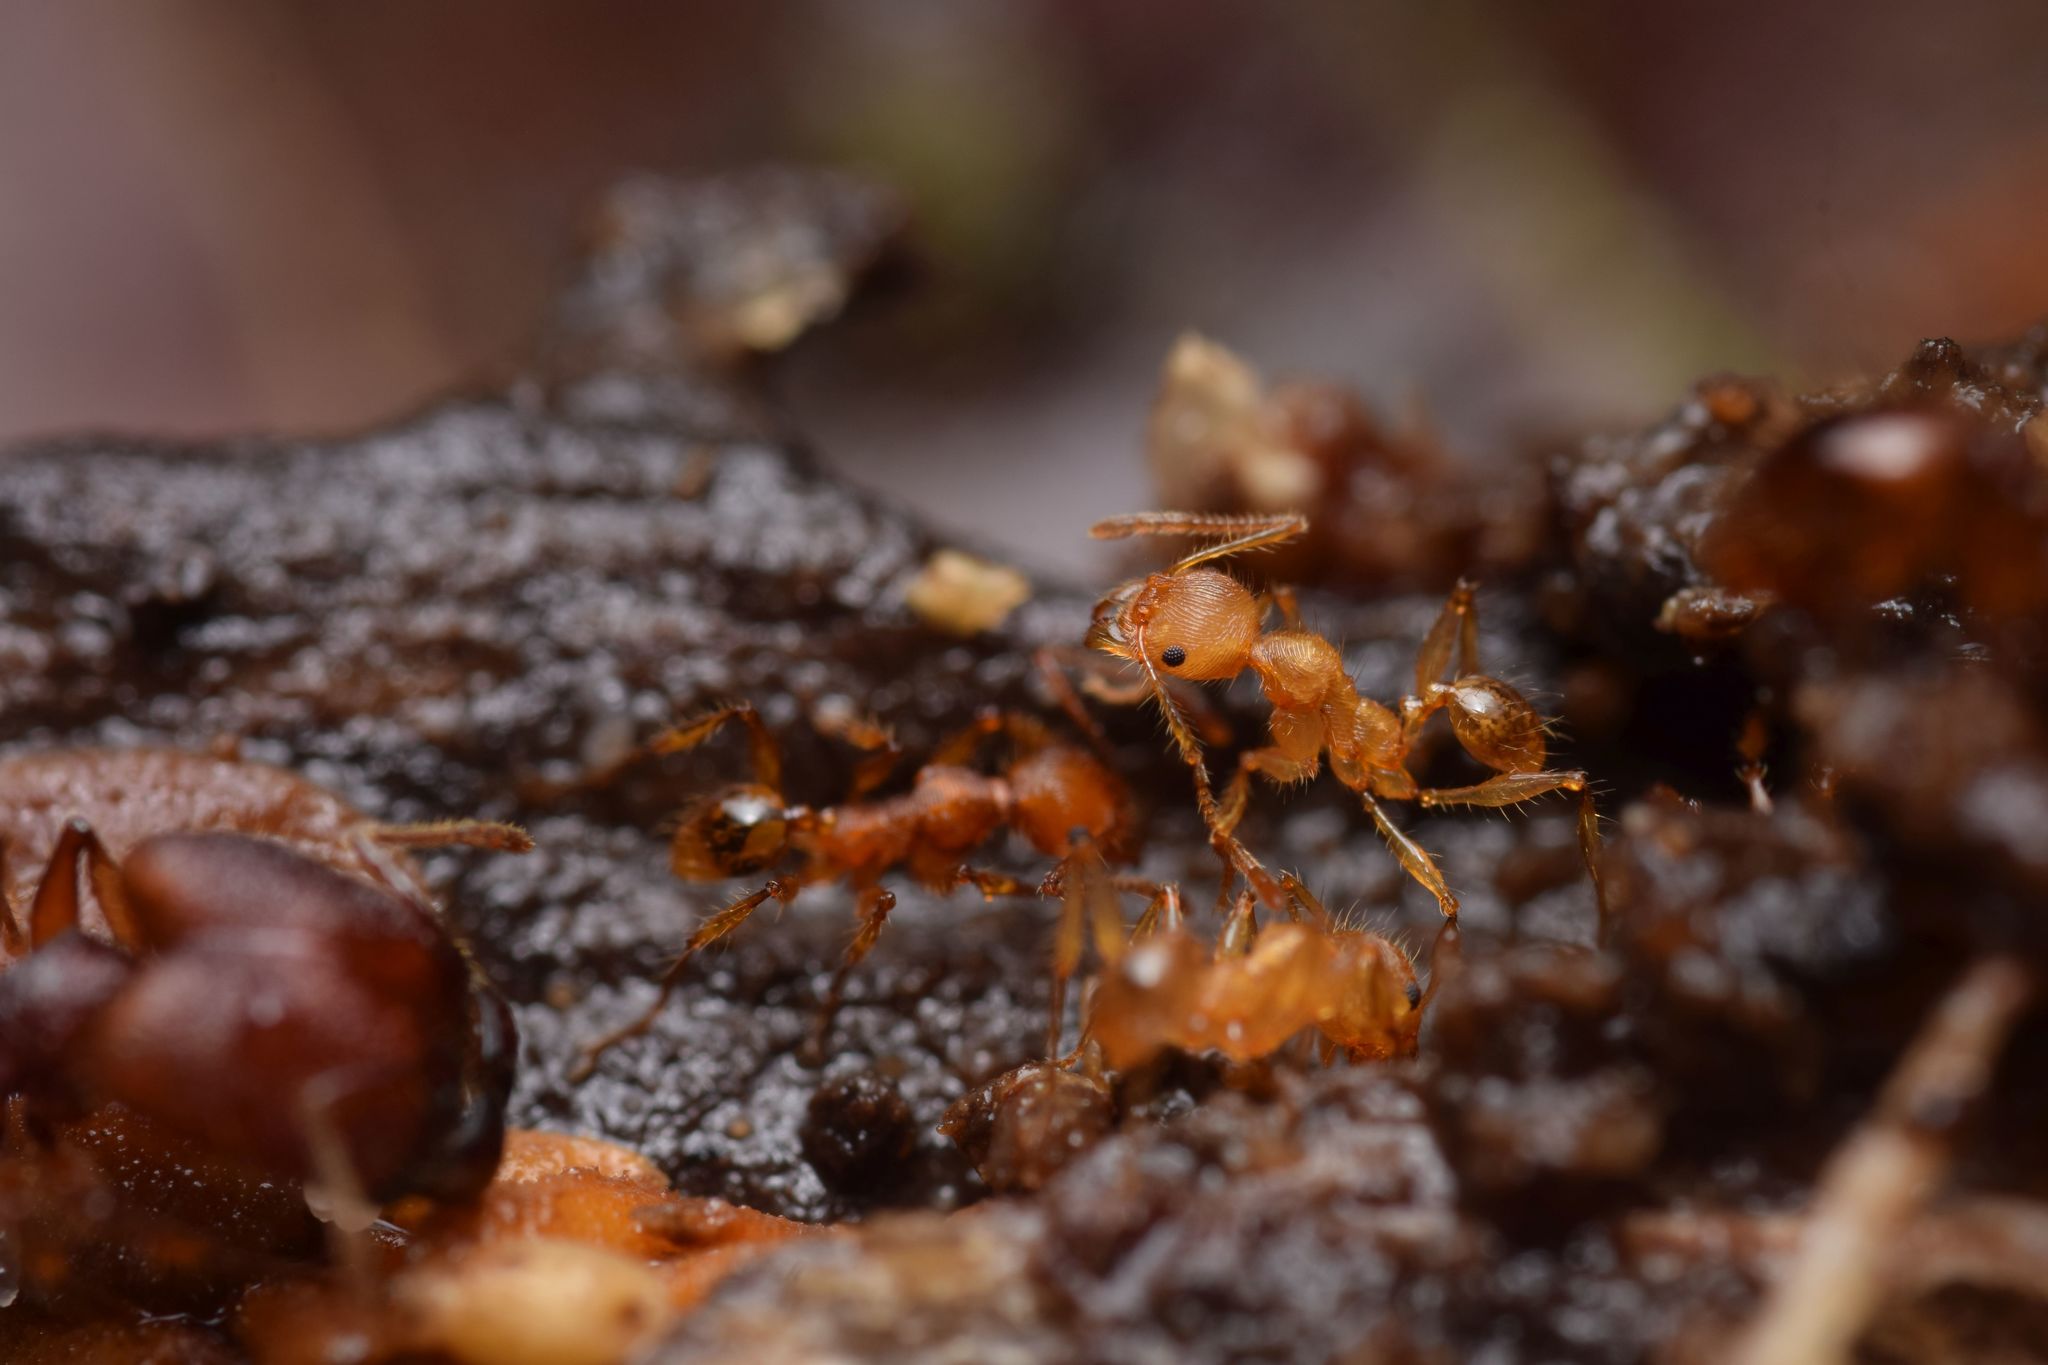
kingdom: Animalia
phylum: Arthropoda
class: Insecta
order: Hymenoptera
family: Formicidae
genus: Pheidole
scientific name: Pheidole ectatommoides
